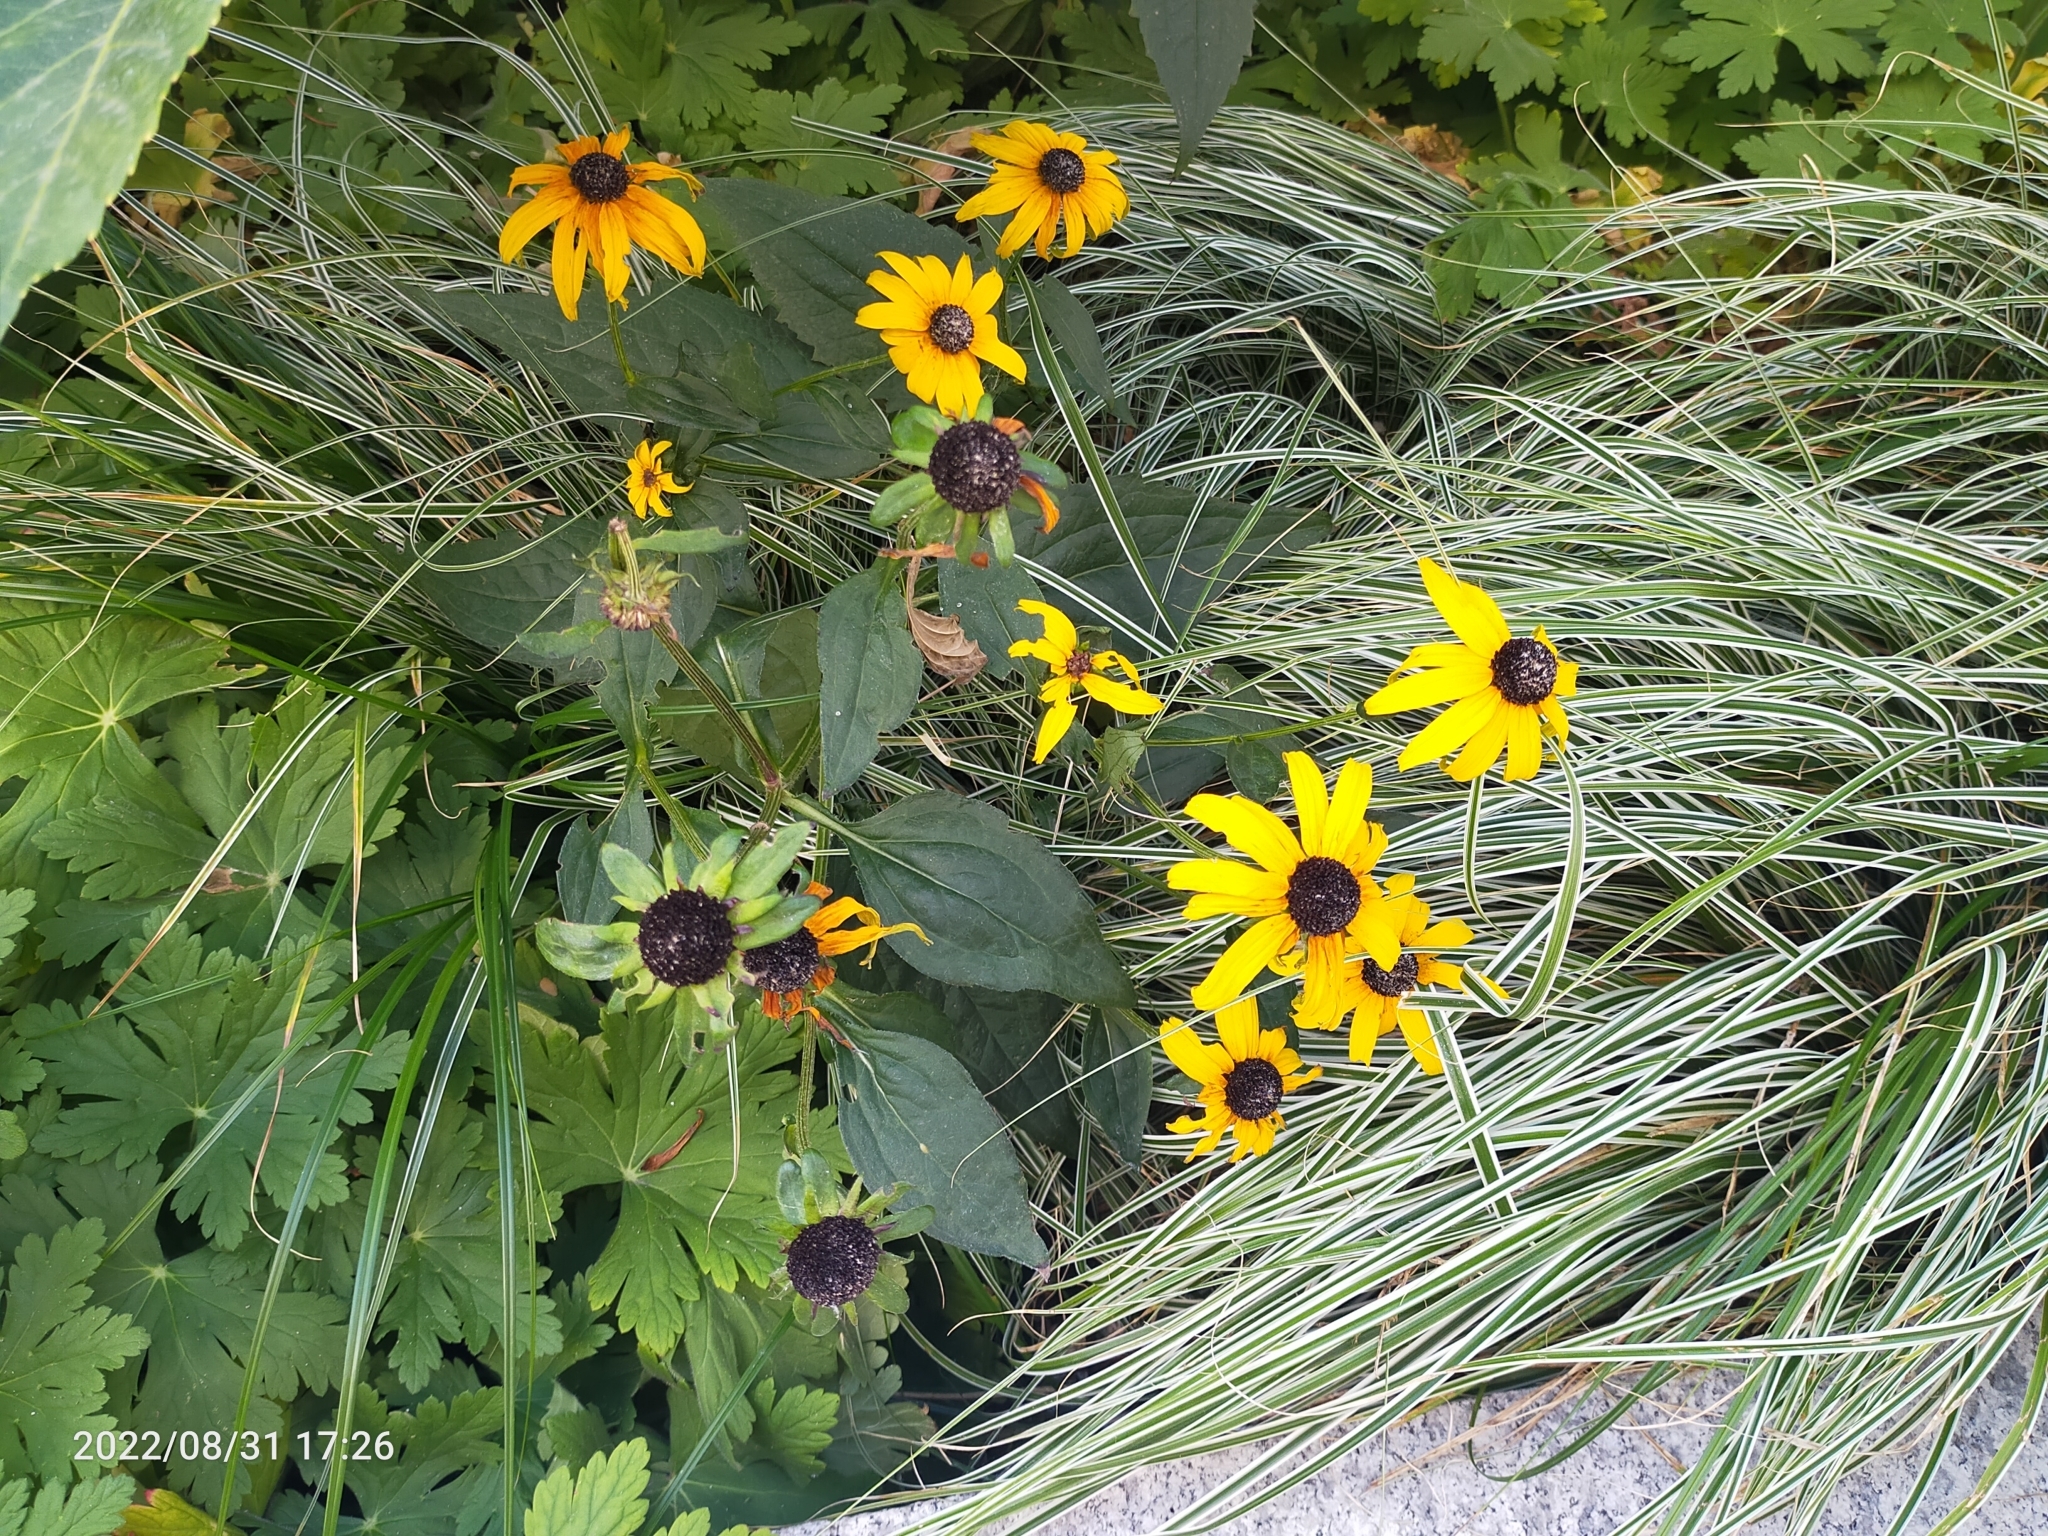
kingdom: Plantae
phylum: Tracheophyta
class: Magnoliopsida
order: Asterales
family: Asteraceae
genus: Rudbeckia
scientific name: Rudbeckia hirta
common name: Black-eyed-susan
